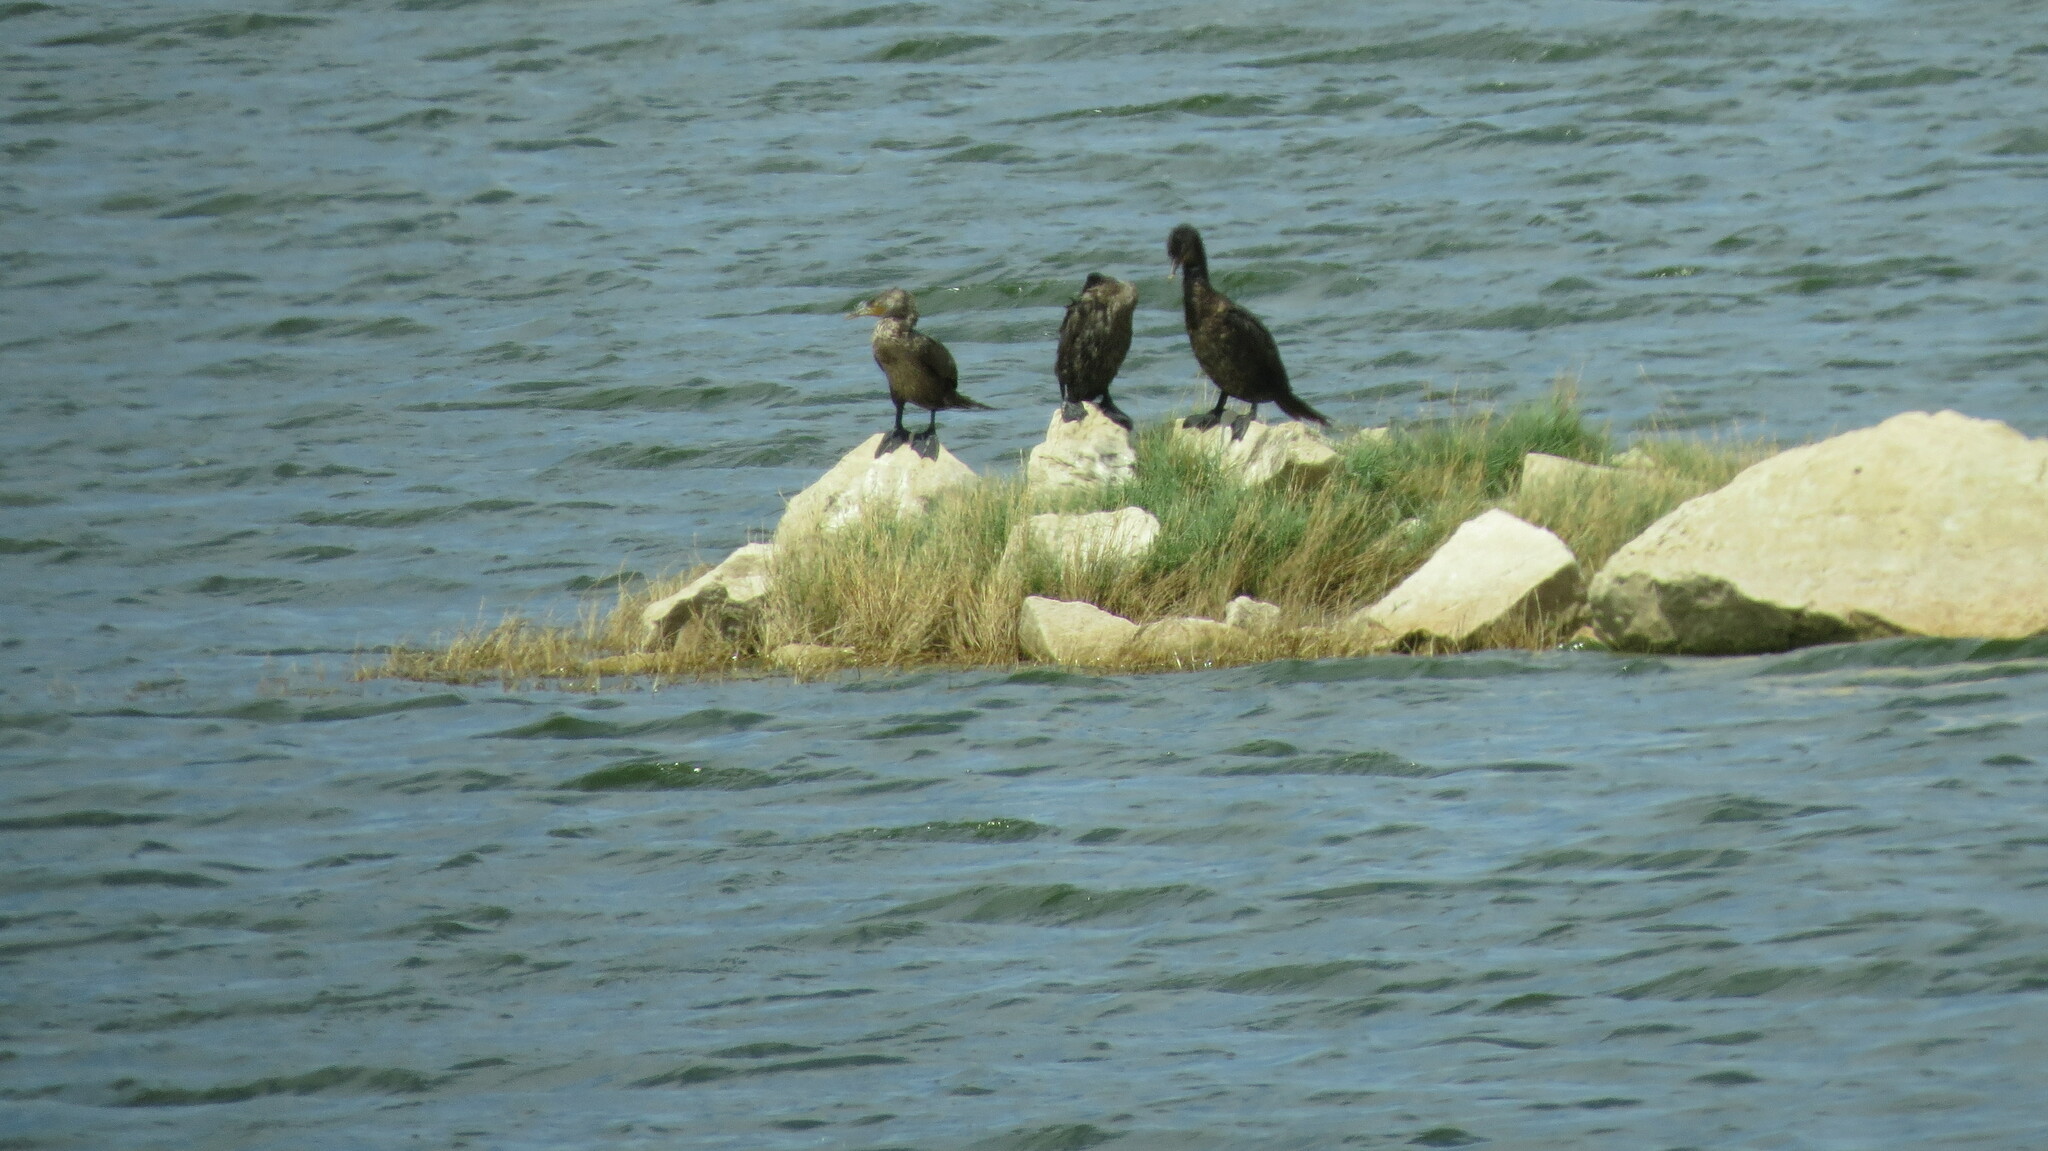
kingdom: Animalia
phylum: Chordata
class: Aves
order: Suliformes
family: Phalacrocoracidae
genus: Phalacrocorax
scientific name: Phalacrocorax brasilianus
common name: Neotropic cormorant
